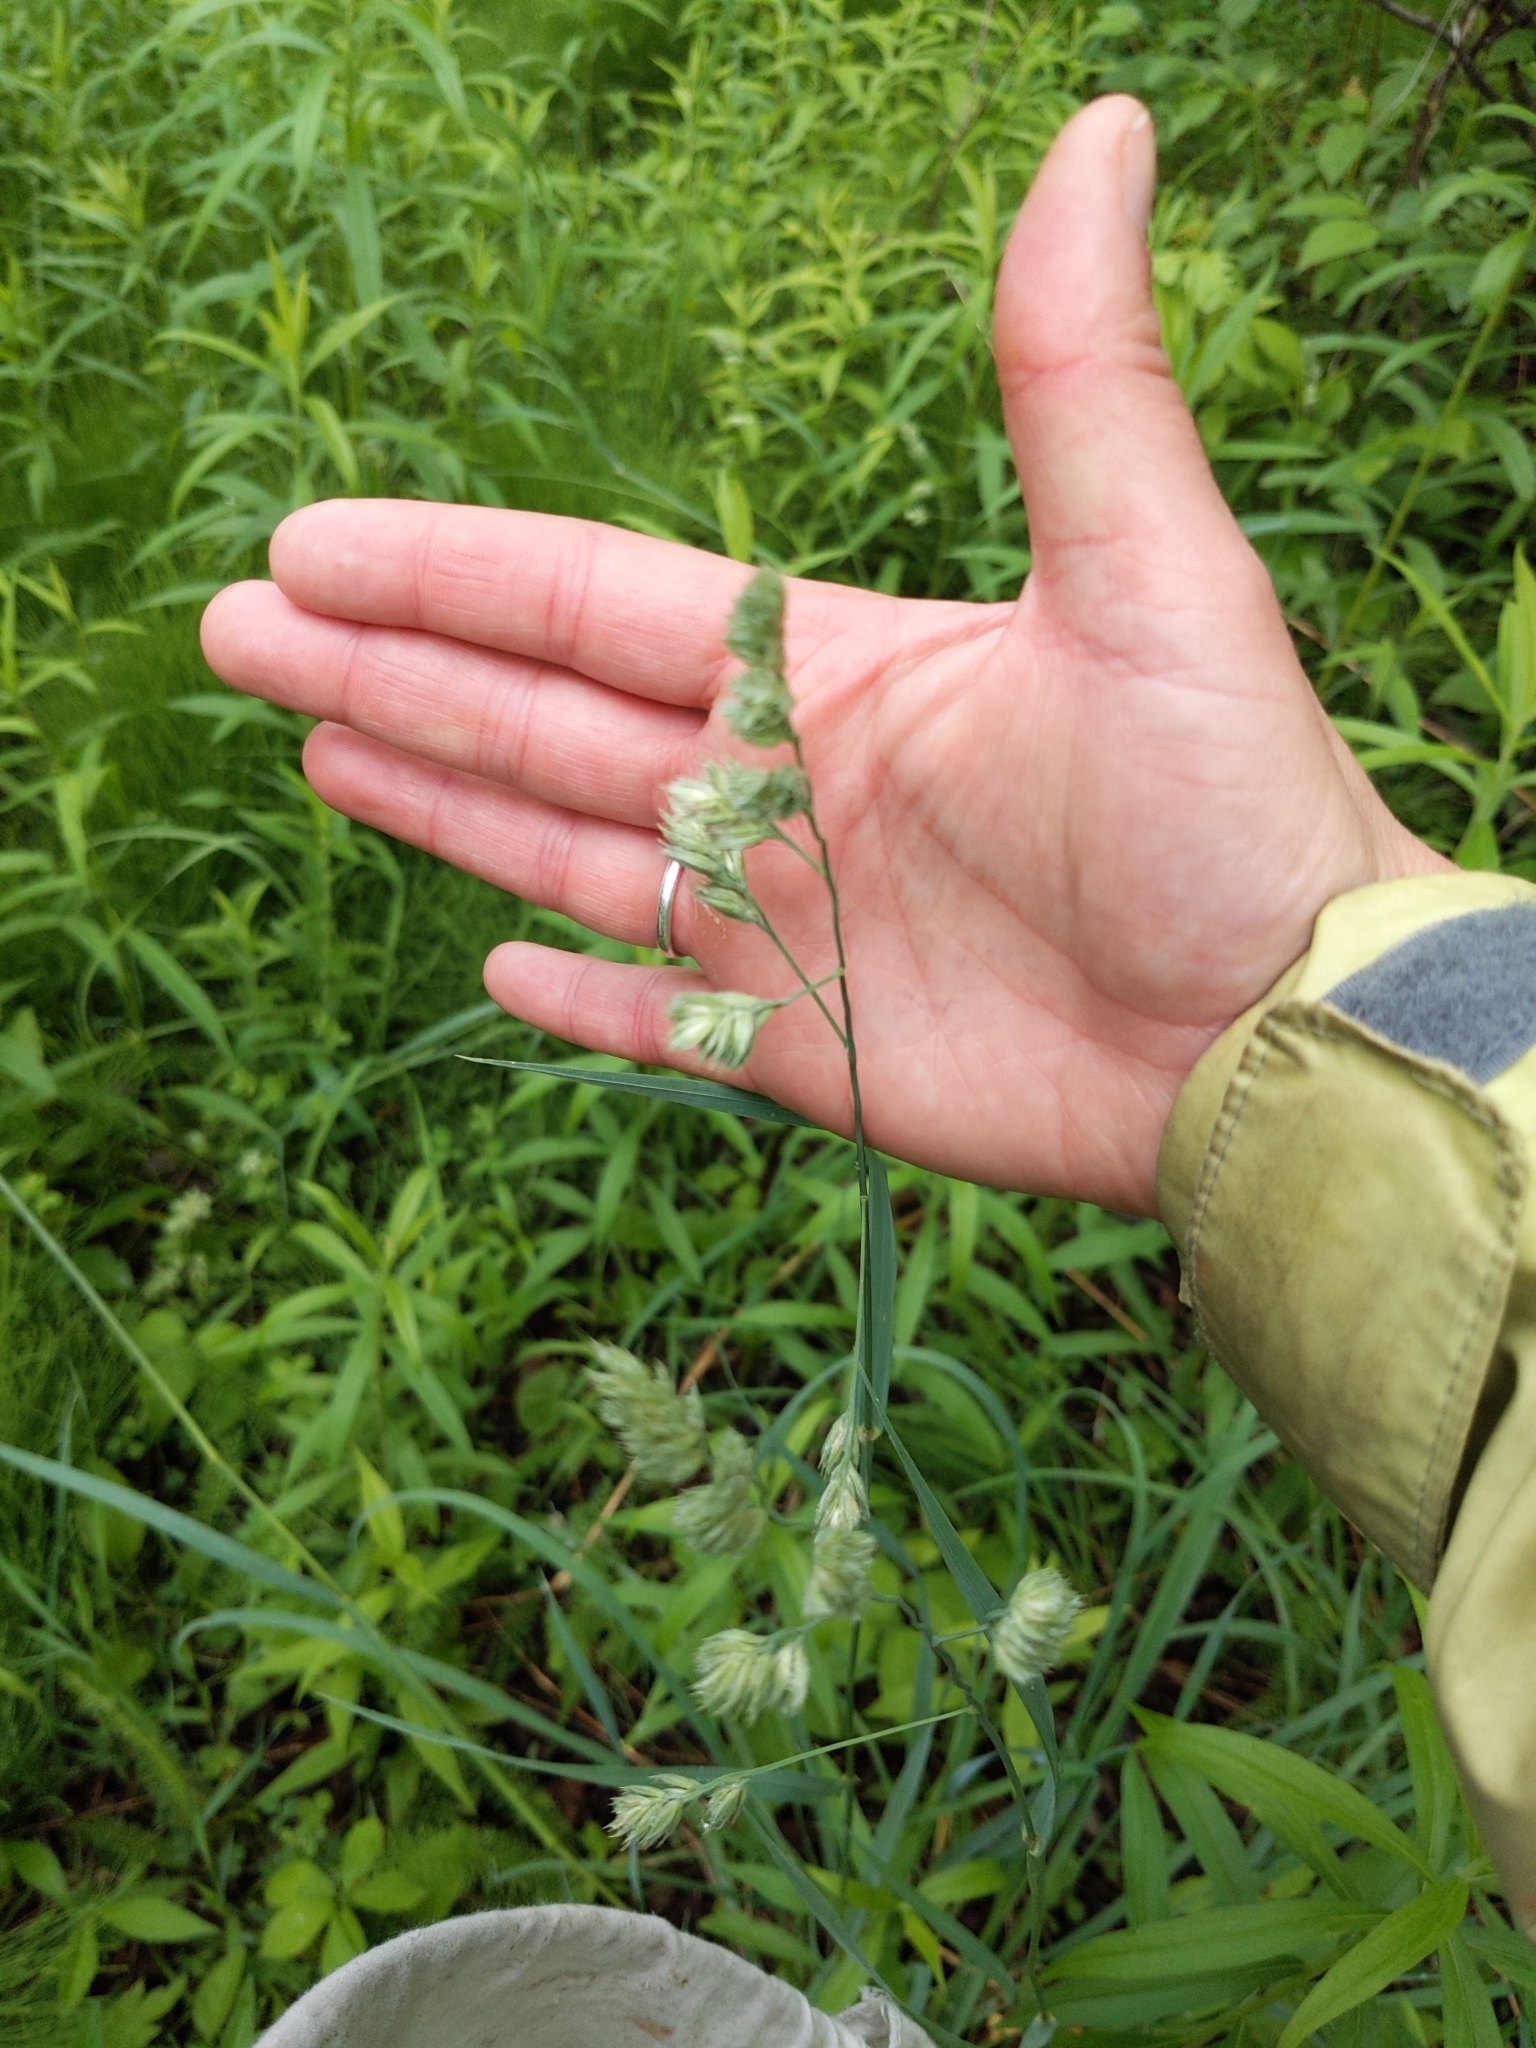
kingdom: Plantae
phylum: Tracheophyta
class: Liliopsida
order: Poales
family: Poaceae
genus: Dactylis
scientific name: Dactylis glomerata
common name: Orchardgrass
